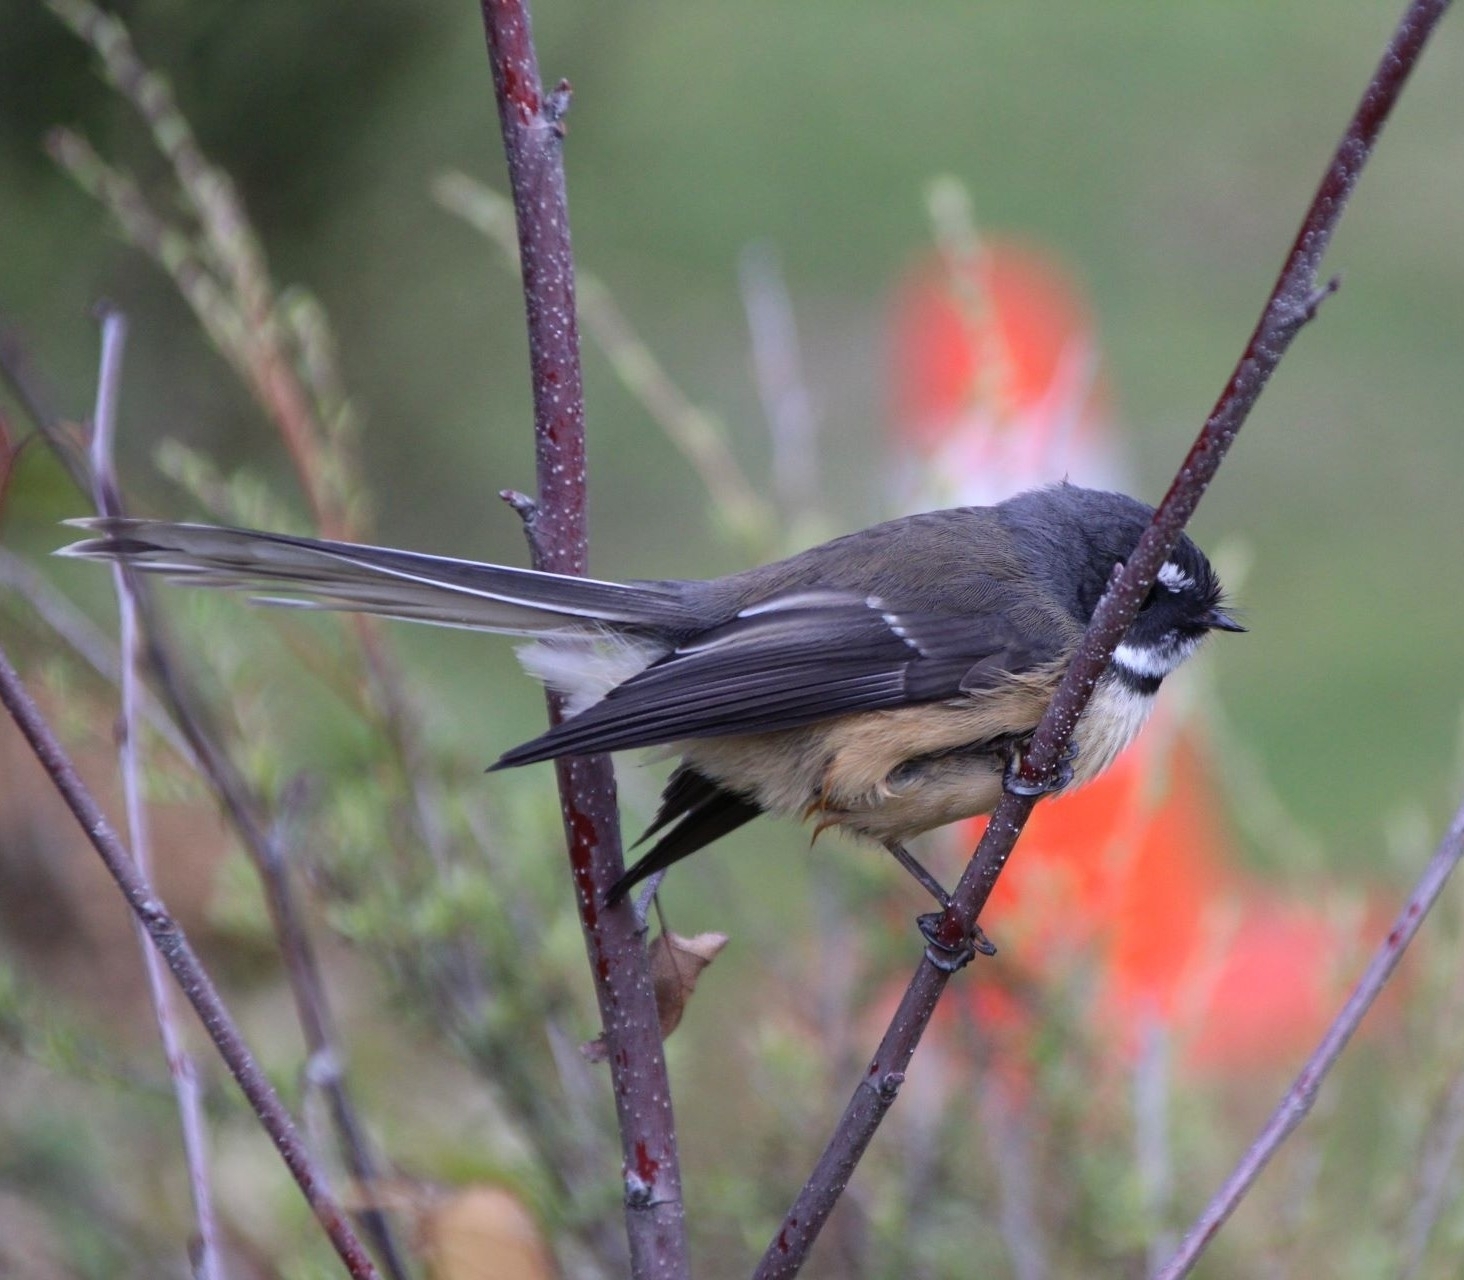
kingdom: Animalia
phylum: Chordata
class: Aves
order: Passeriformes
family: Rhipiduridae
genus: Rhipidura
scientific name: Rhipidura fuliginosa
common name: New zealand fantail
